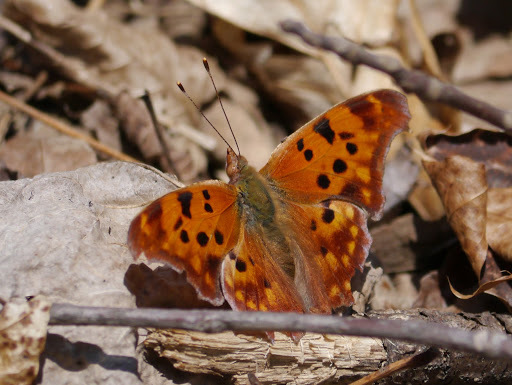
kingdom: Animalia
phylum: Arthropoda
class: Insecta
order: Lepidoptera
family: Nymphalidae
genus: Polygonia
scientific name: Polygonia interrogationis
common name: Question mark
